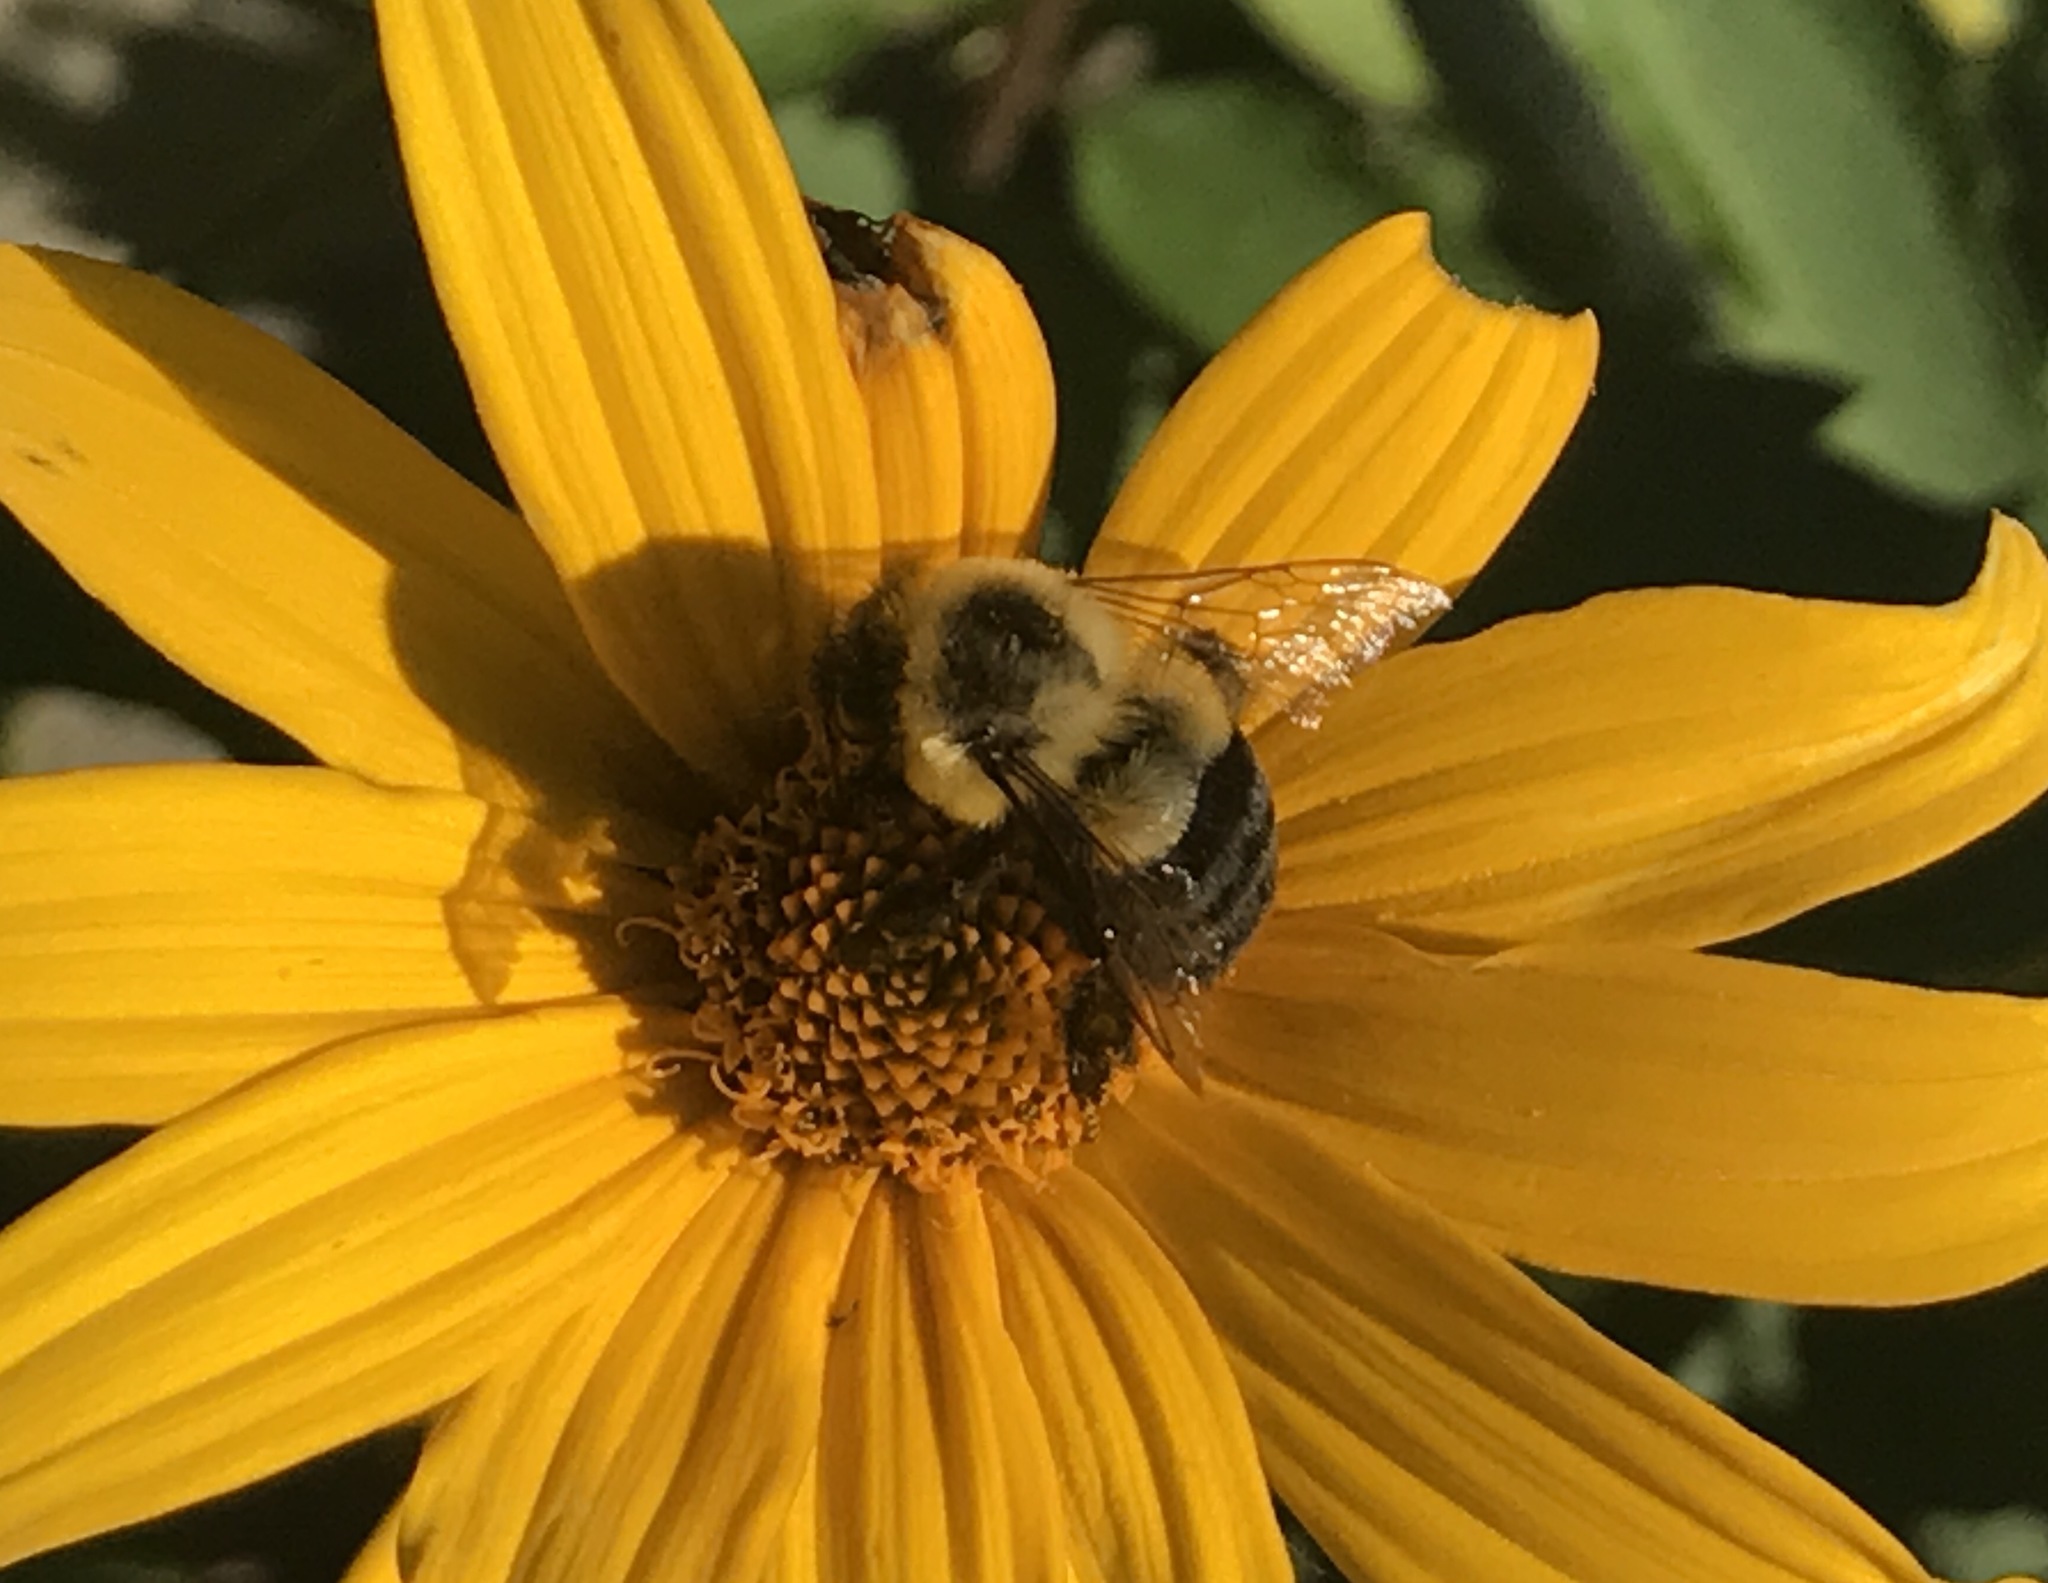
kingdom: Animalia
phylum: Arthropoda
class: Insecta
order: Hymenoptera
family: Apidae
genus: Bombus
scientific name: Bombus impatiens
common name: Common eastern bumble bee
